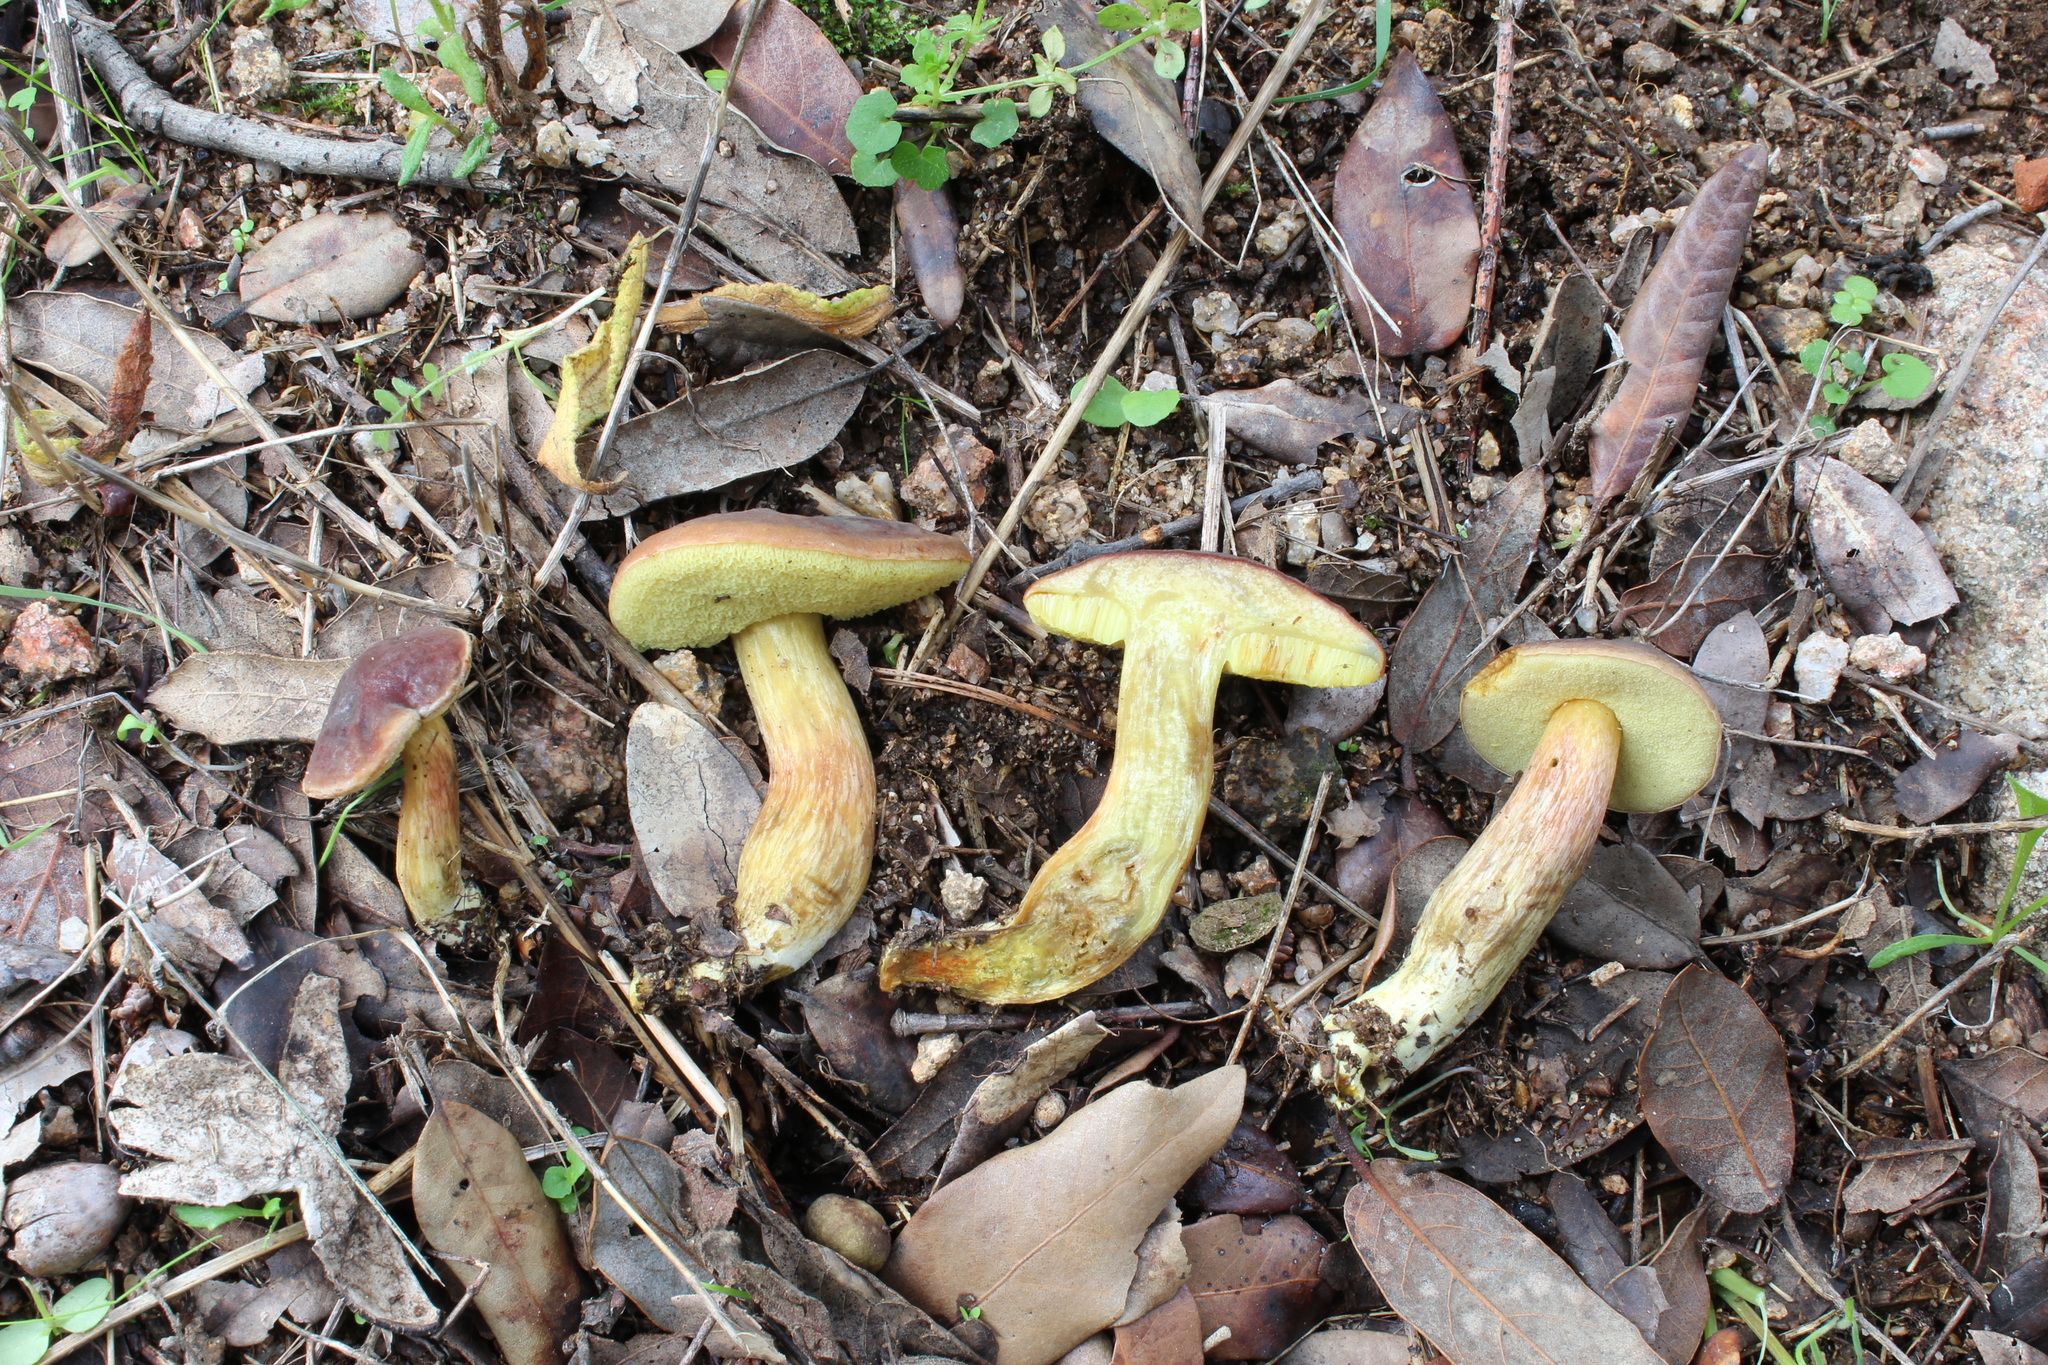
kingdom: Fungi
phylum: Basidiomycota
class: Agaricomycetes
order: Boletales
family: Boletaceae
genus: Hortiboletus
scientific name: Hortiboletus engelii
